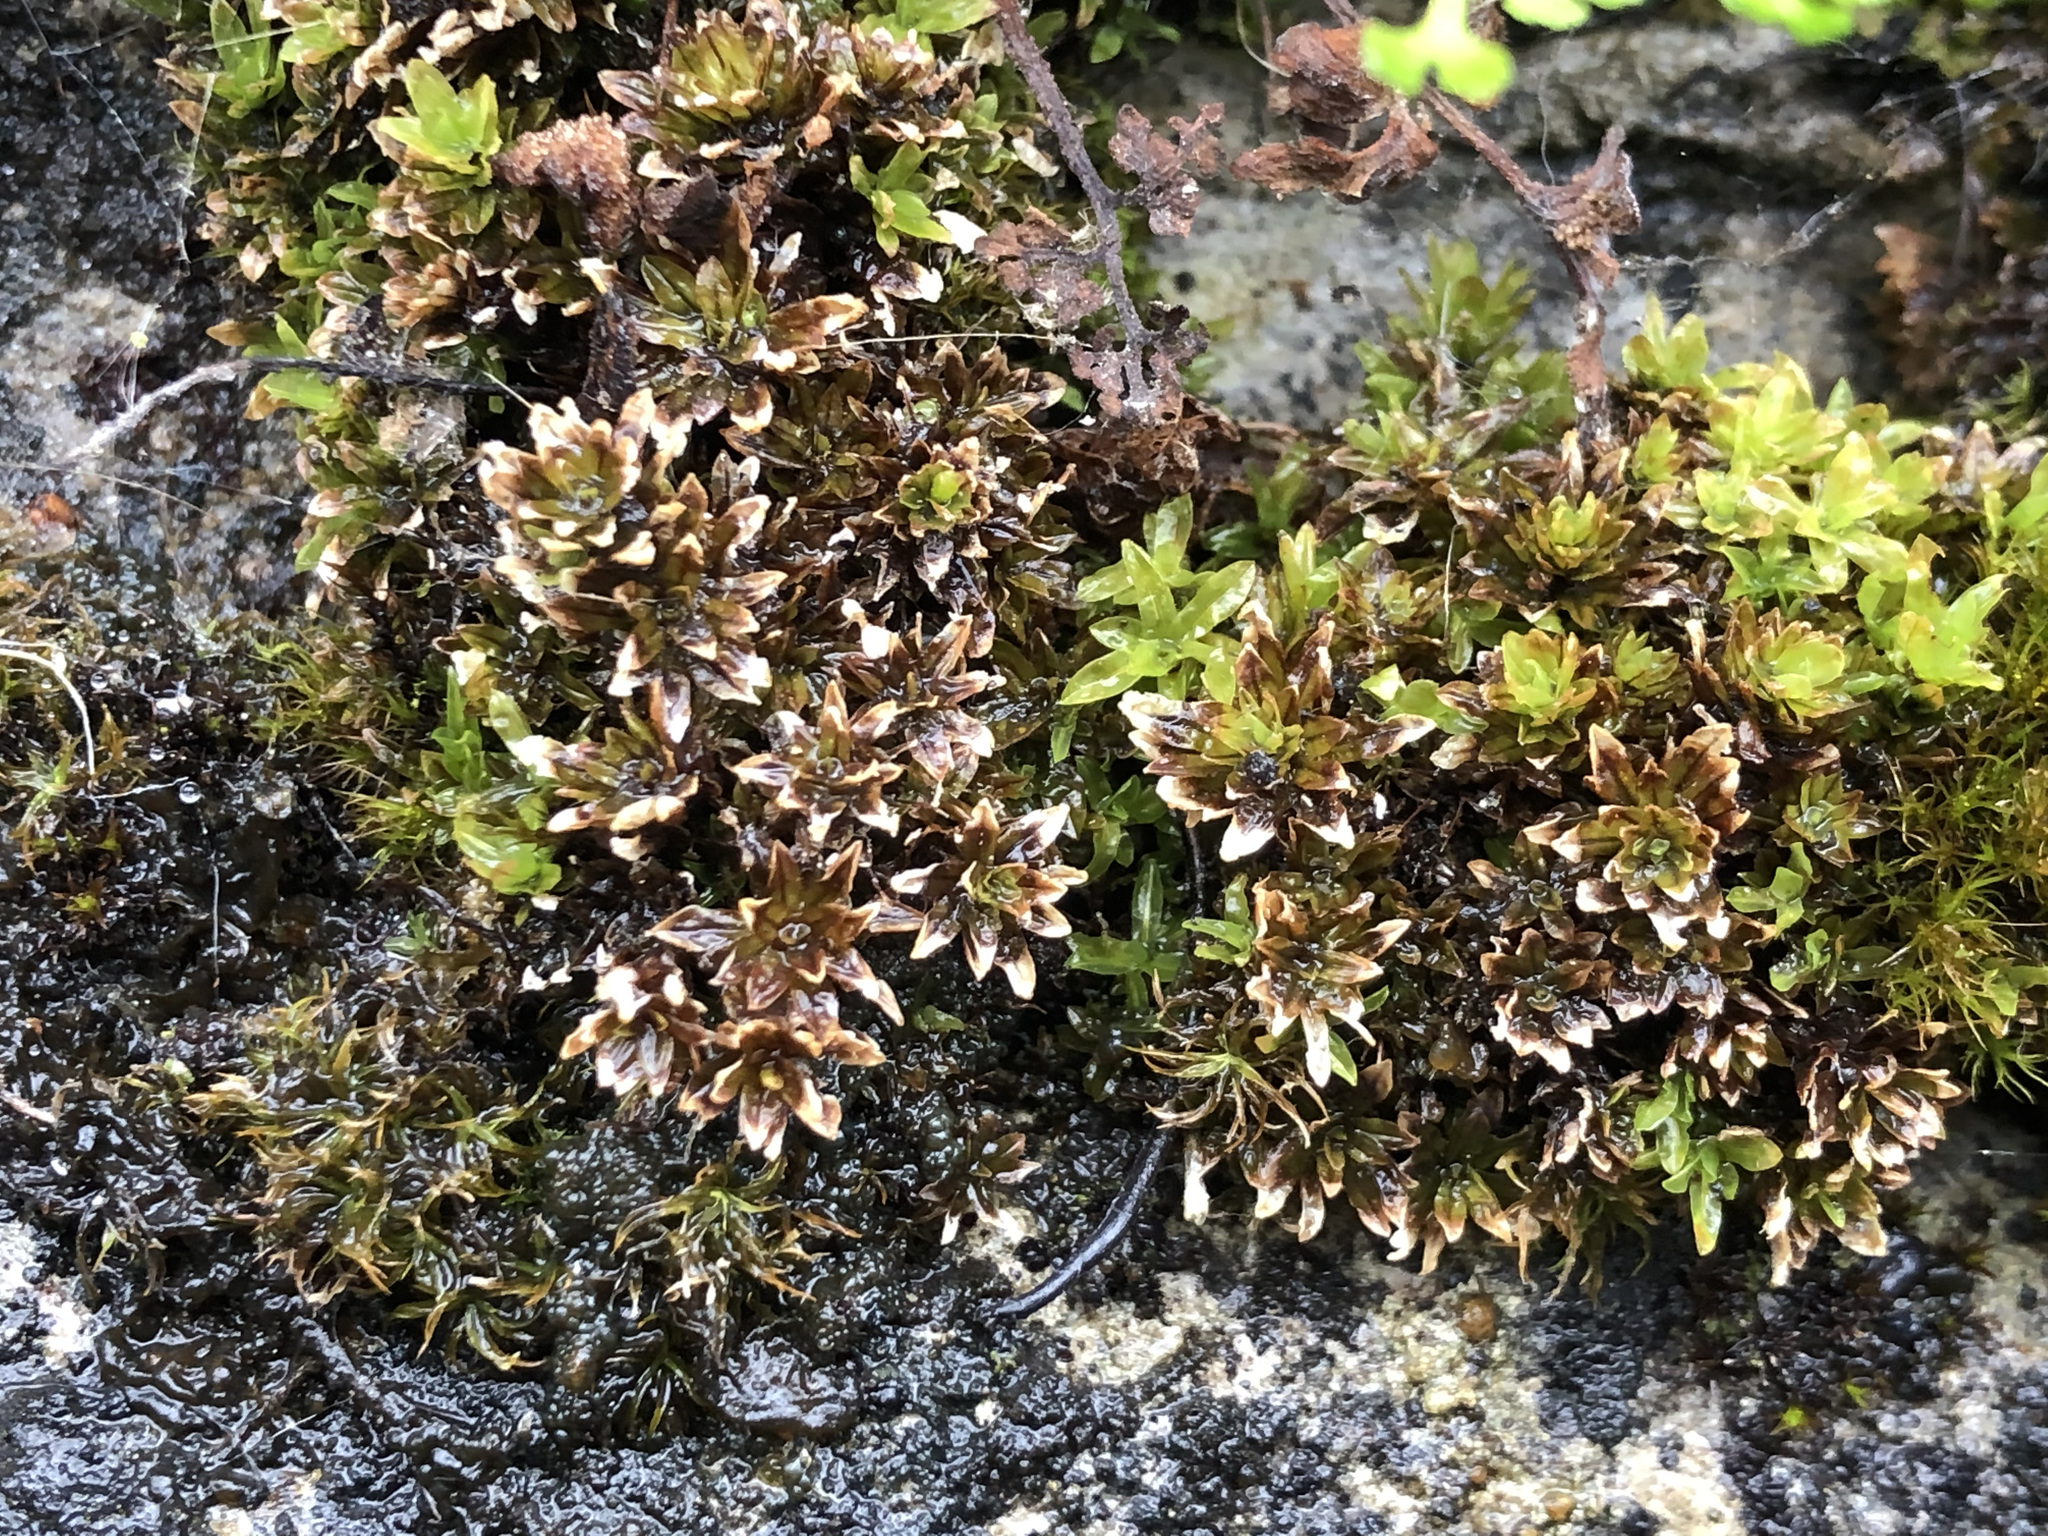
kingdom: Plantae
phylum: Bryophyta
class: Bryopsida
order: Encalyptales
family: Encalyptaceae
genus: Encalypta
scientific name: Encalypta streptocarpa
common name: Spiral extinguisher-moss
